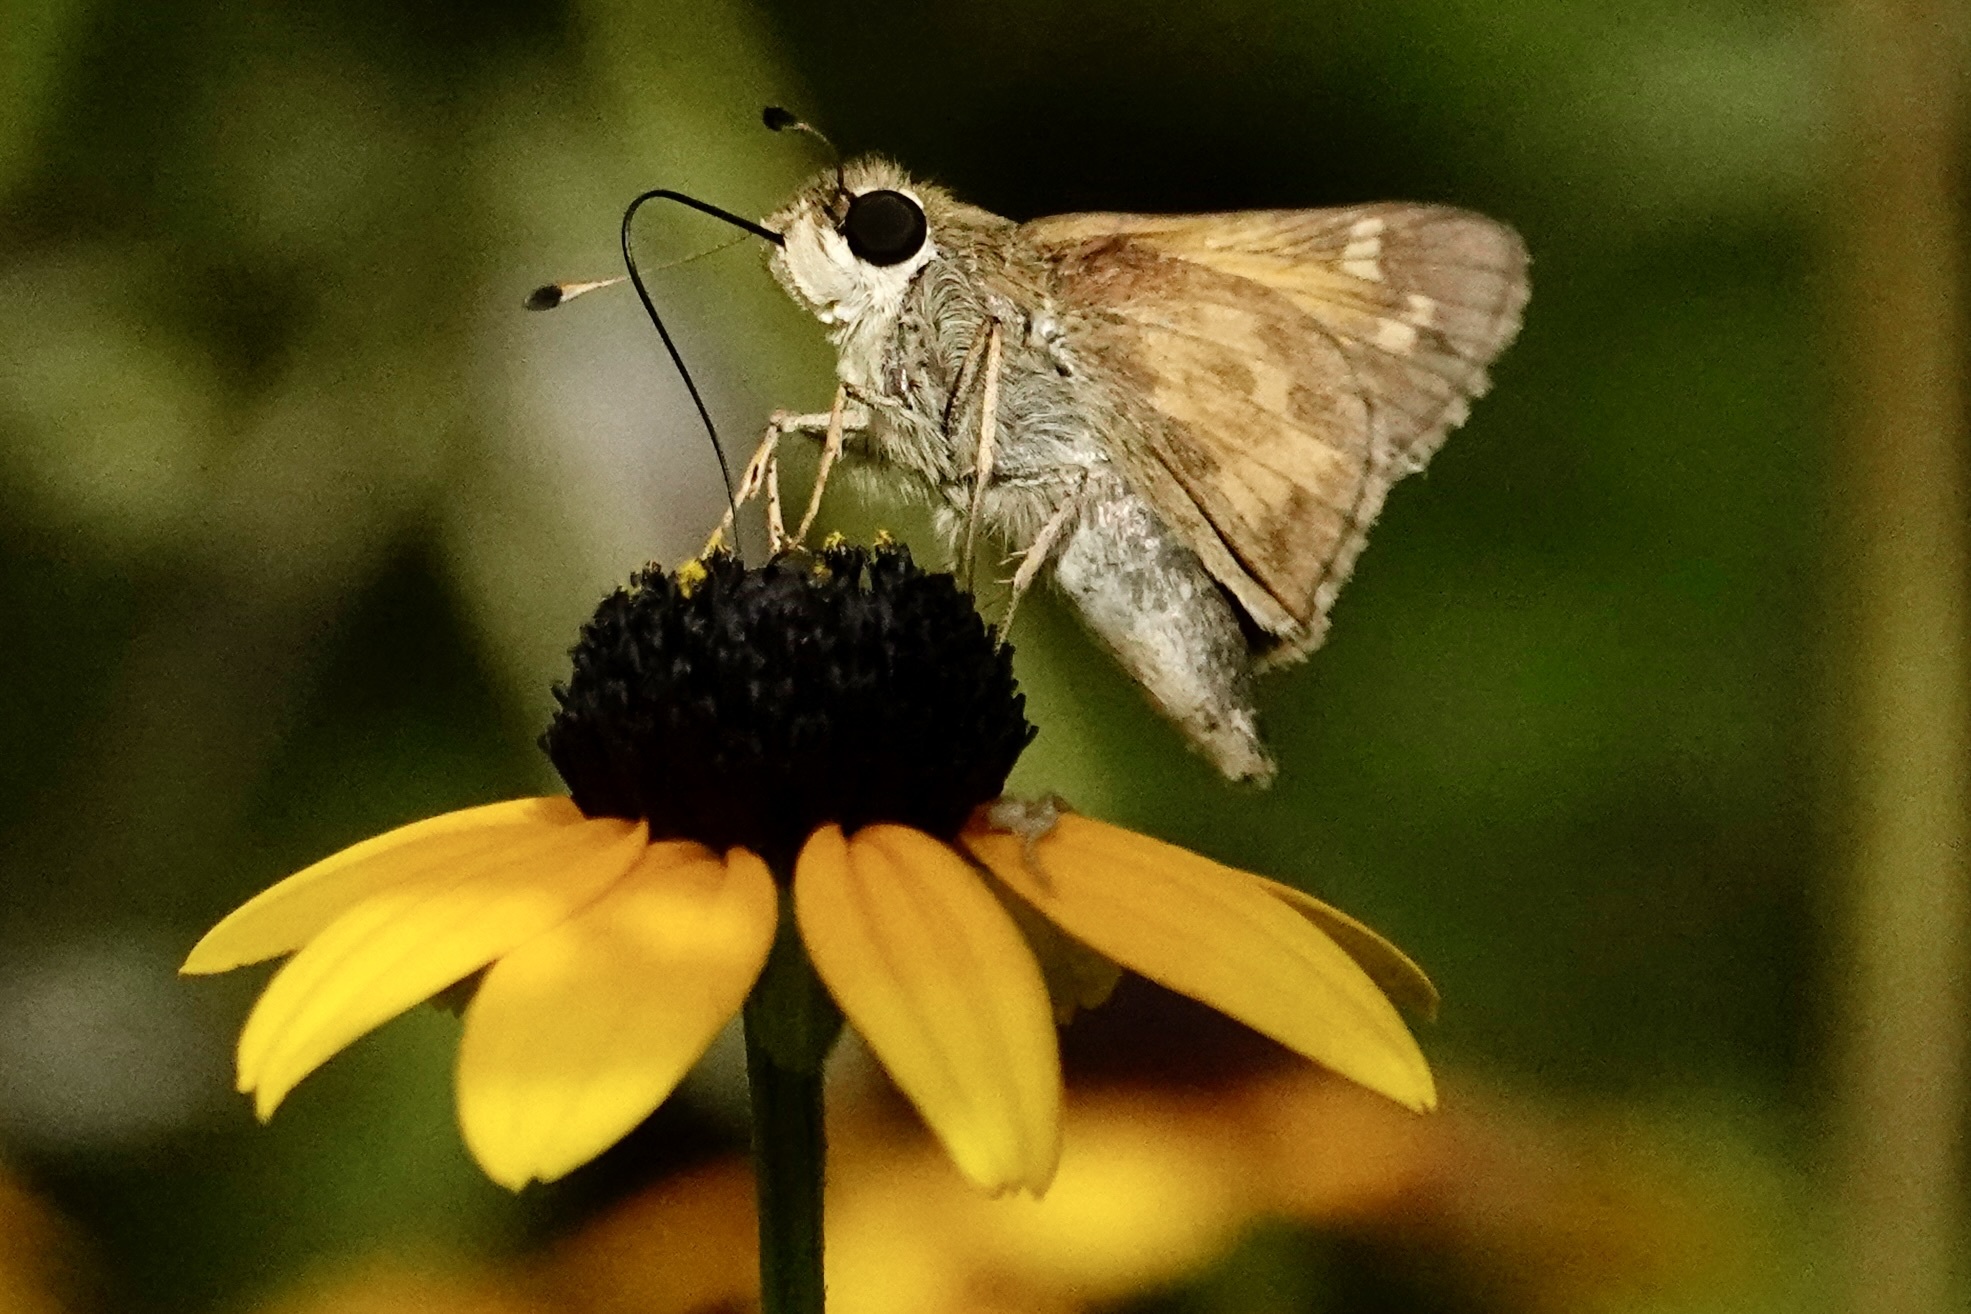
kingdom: Animalia
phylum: Arthropoda
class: Insecta
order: Lepidoptera
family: Hesperiidae
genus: Atalopedes
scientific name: Atalopedes
